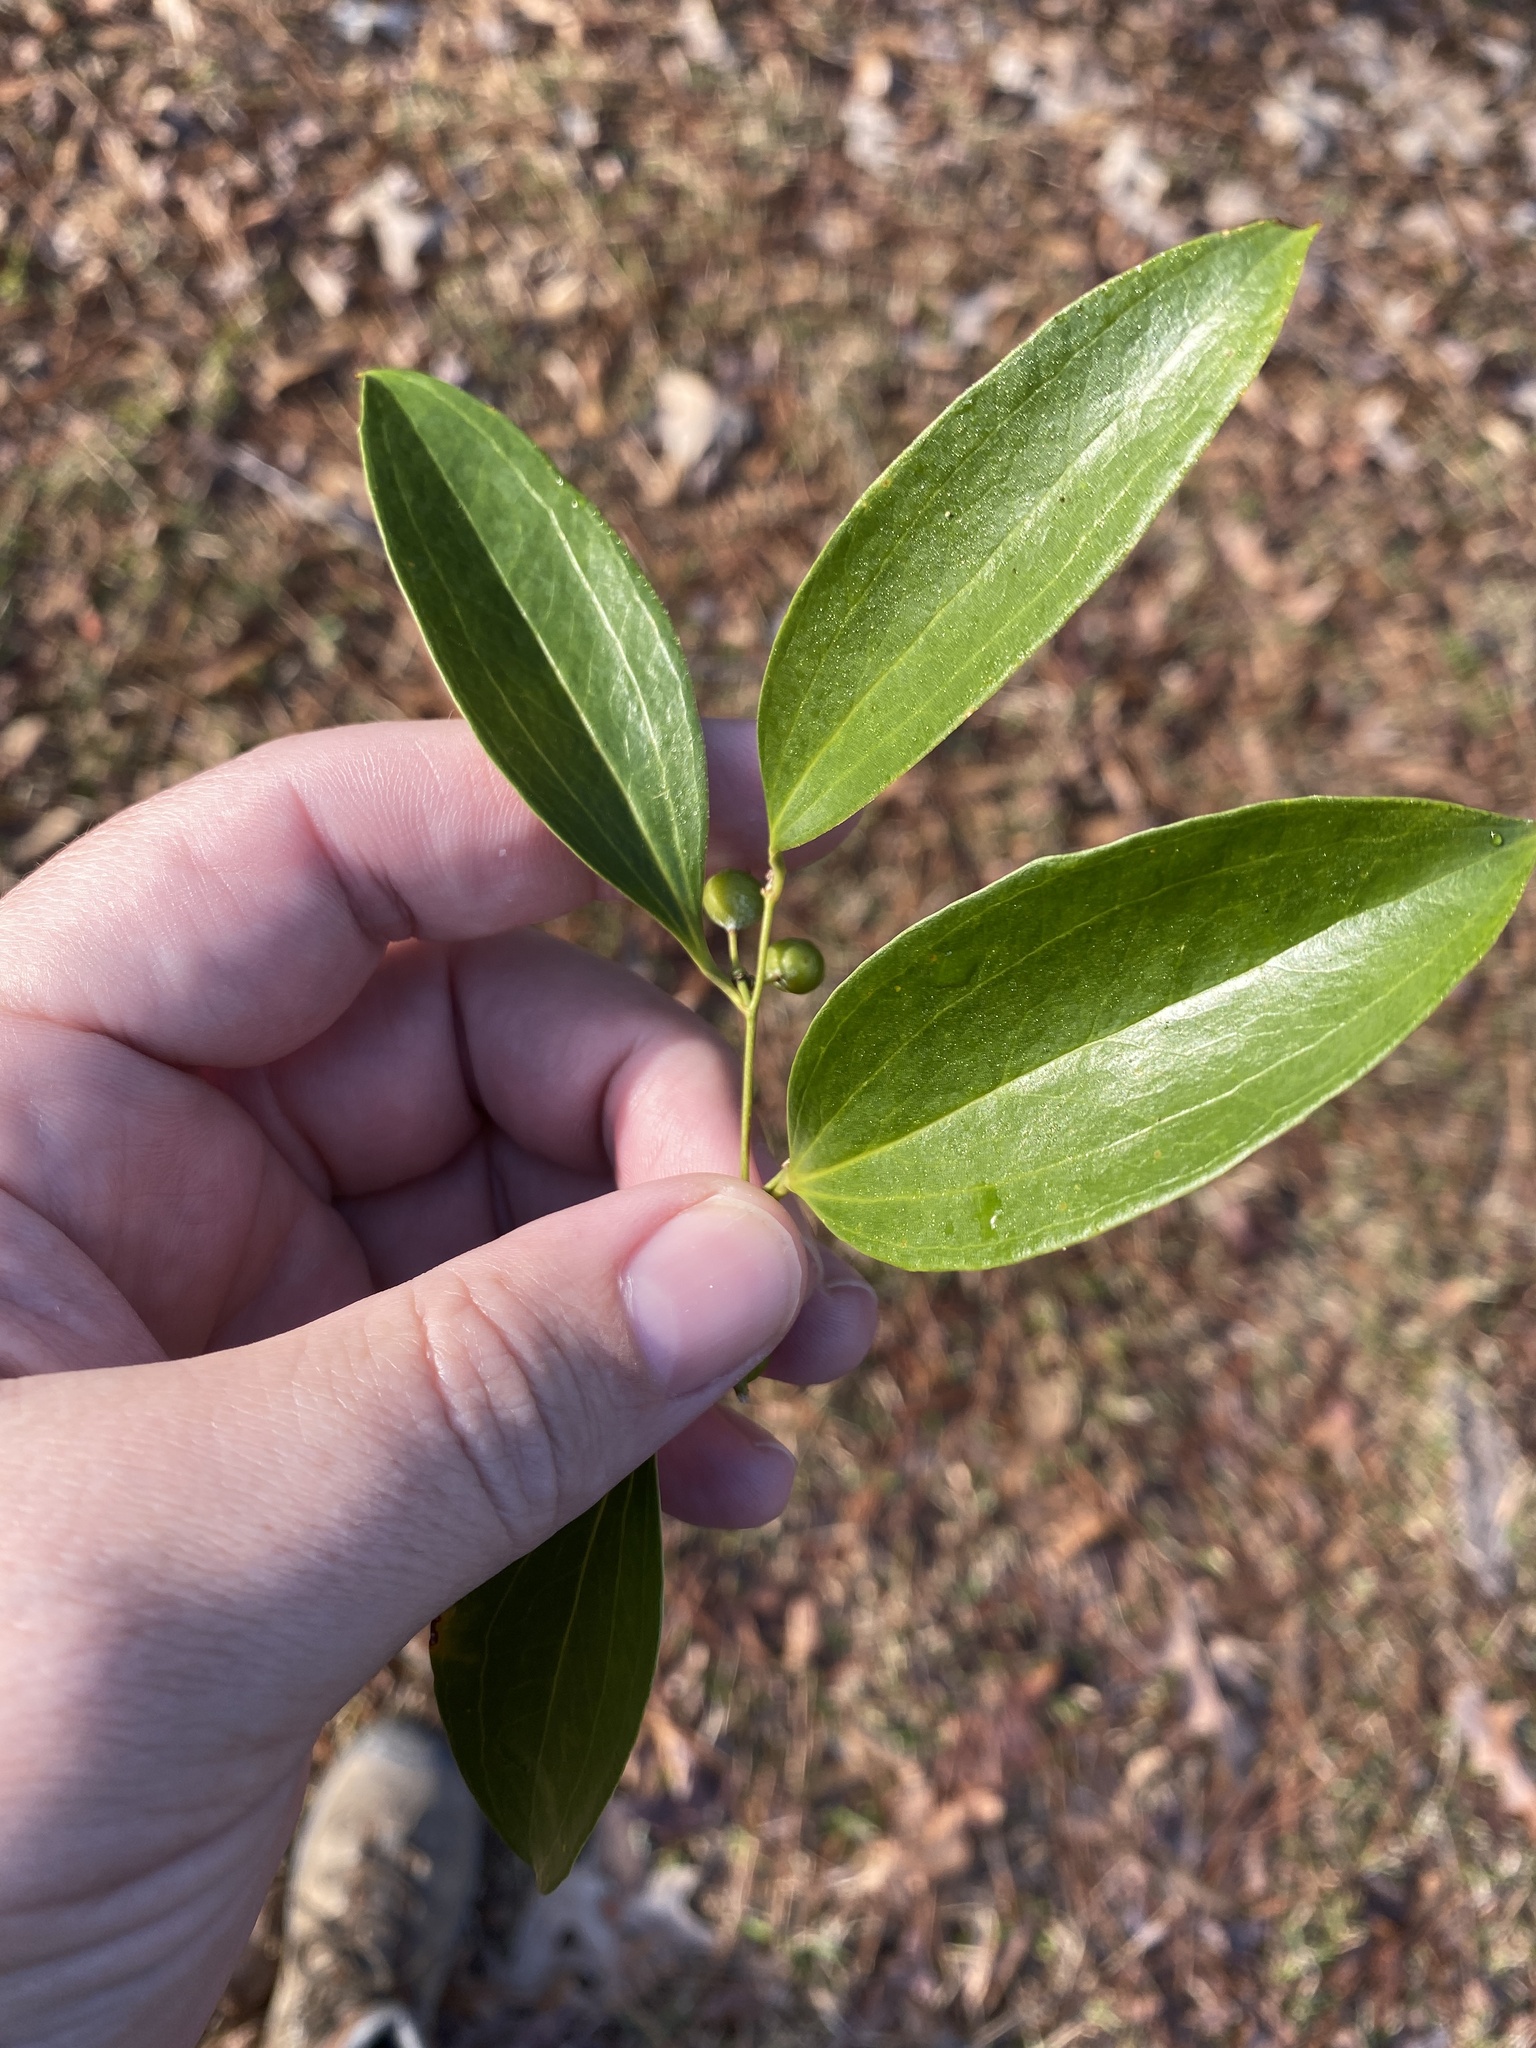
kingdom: Plantae
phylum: Tracheophyta
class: Liliopsida
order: Liliales
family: Smilacaceae
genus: Smilax
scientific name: Smilax maritima
